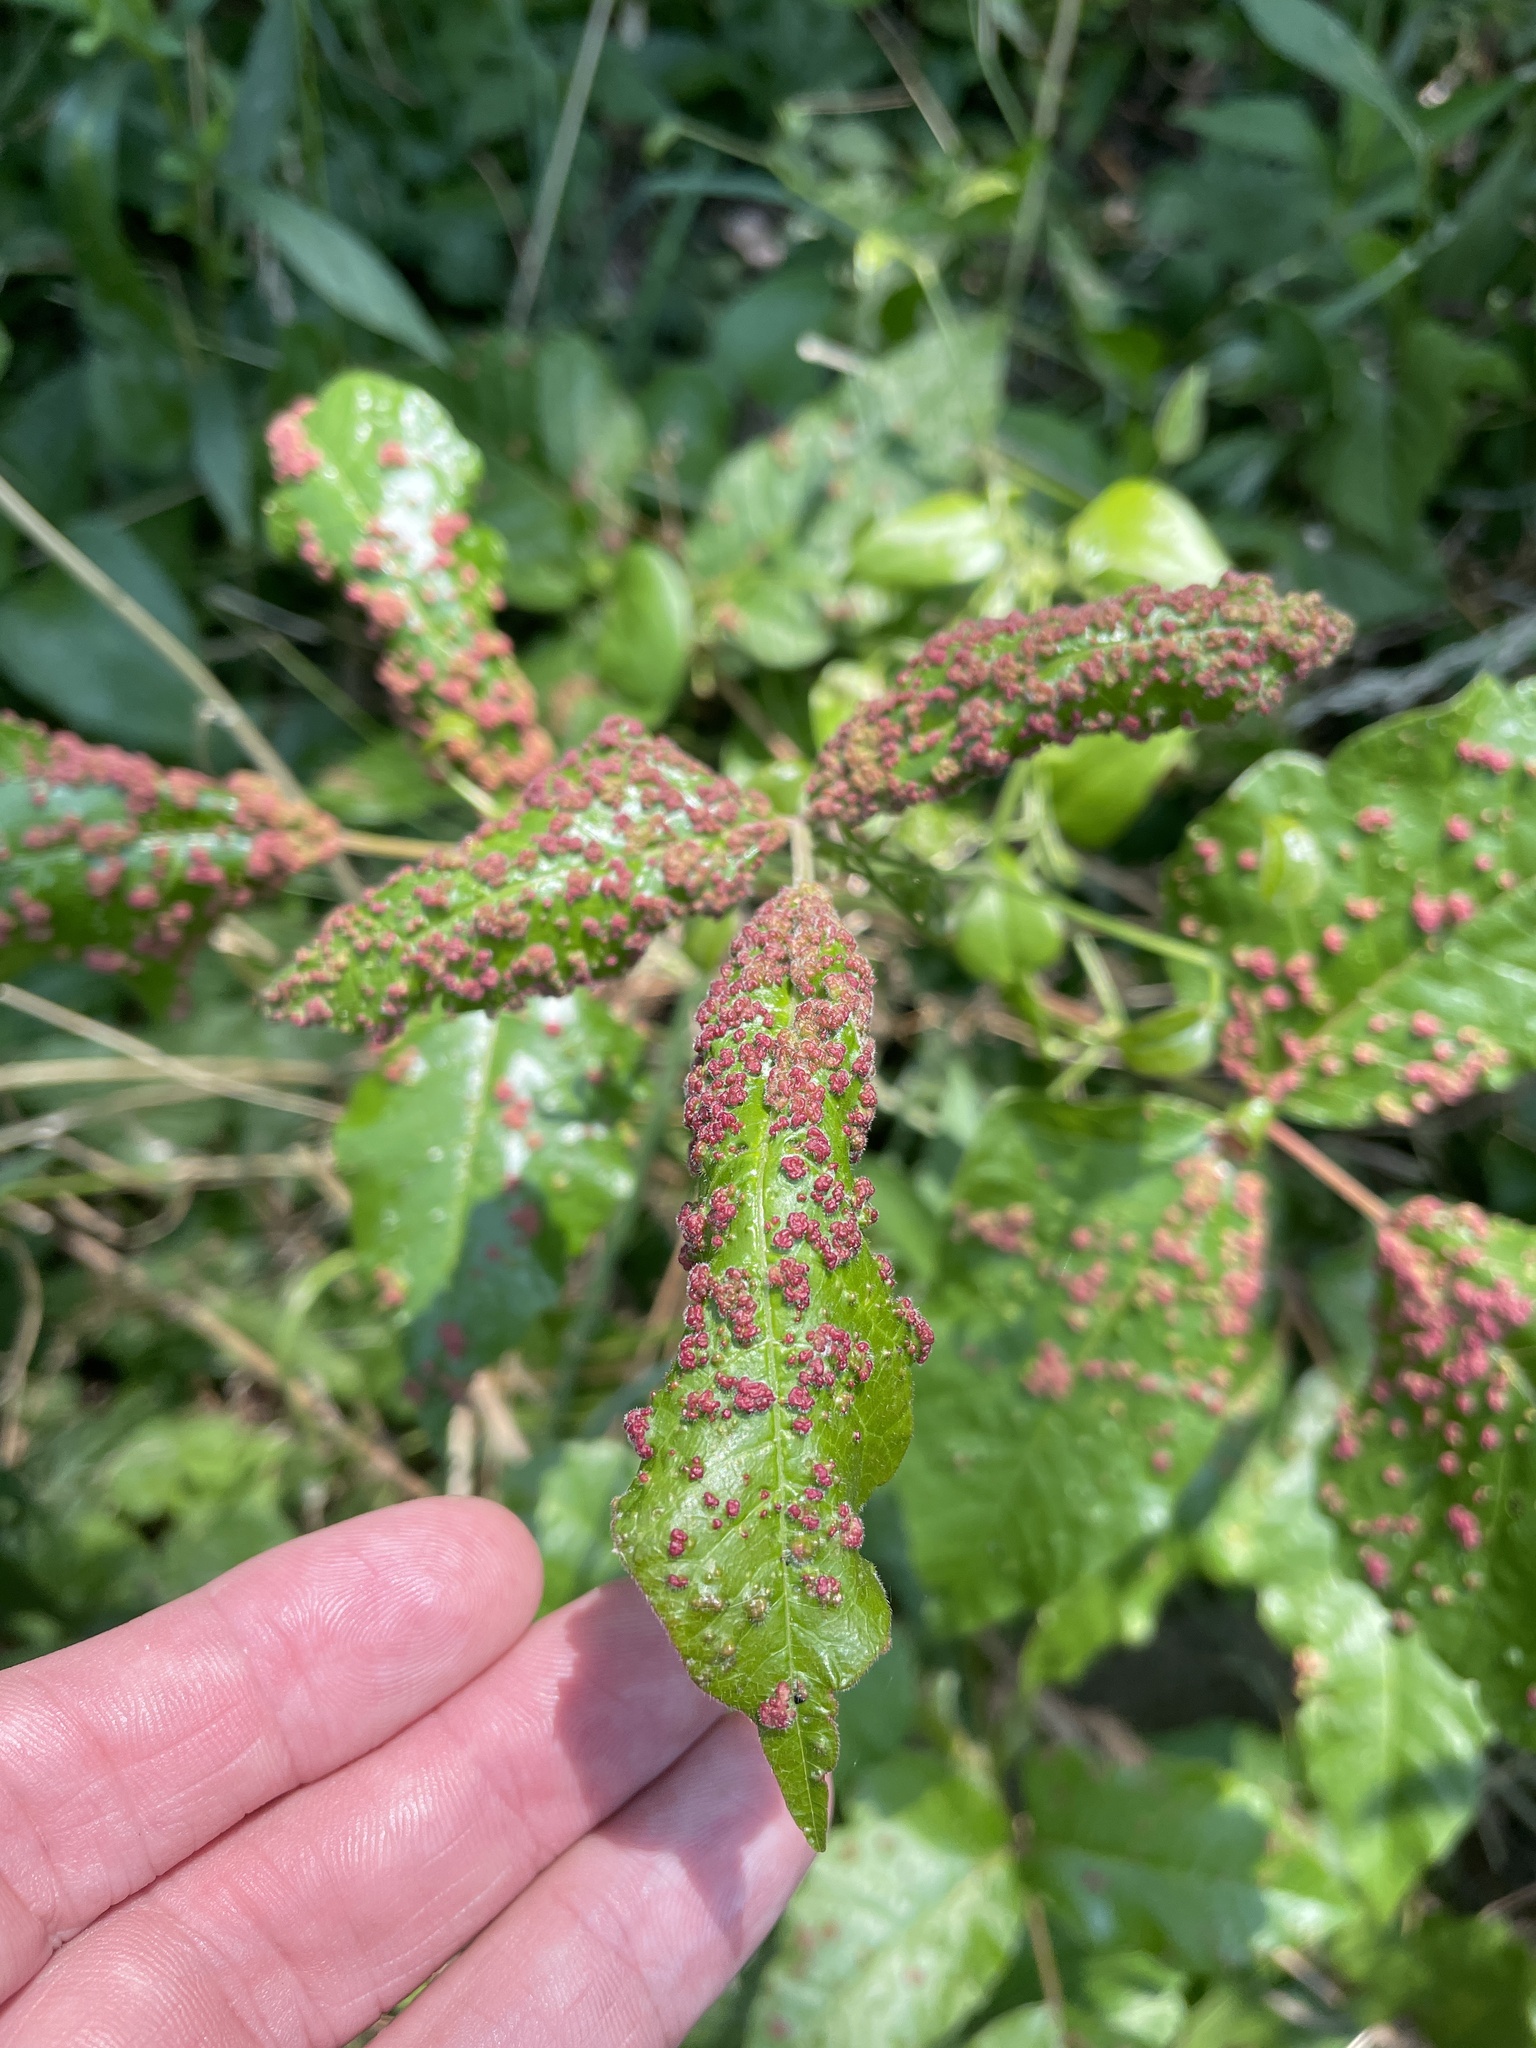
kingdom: Animalia
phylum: Arthropoda
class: Arachnida
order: Trombidiformes
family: Eriophyidae
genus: Aculops
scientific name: Aculops
